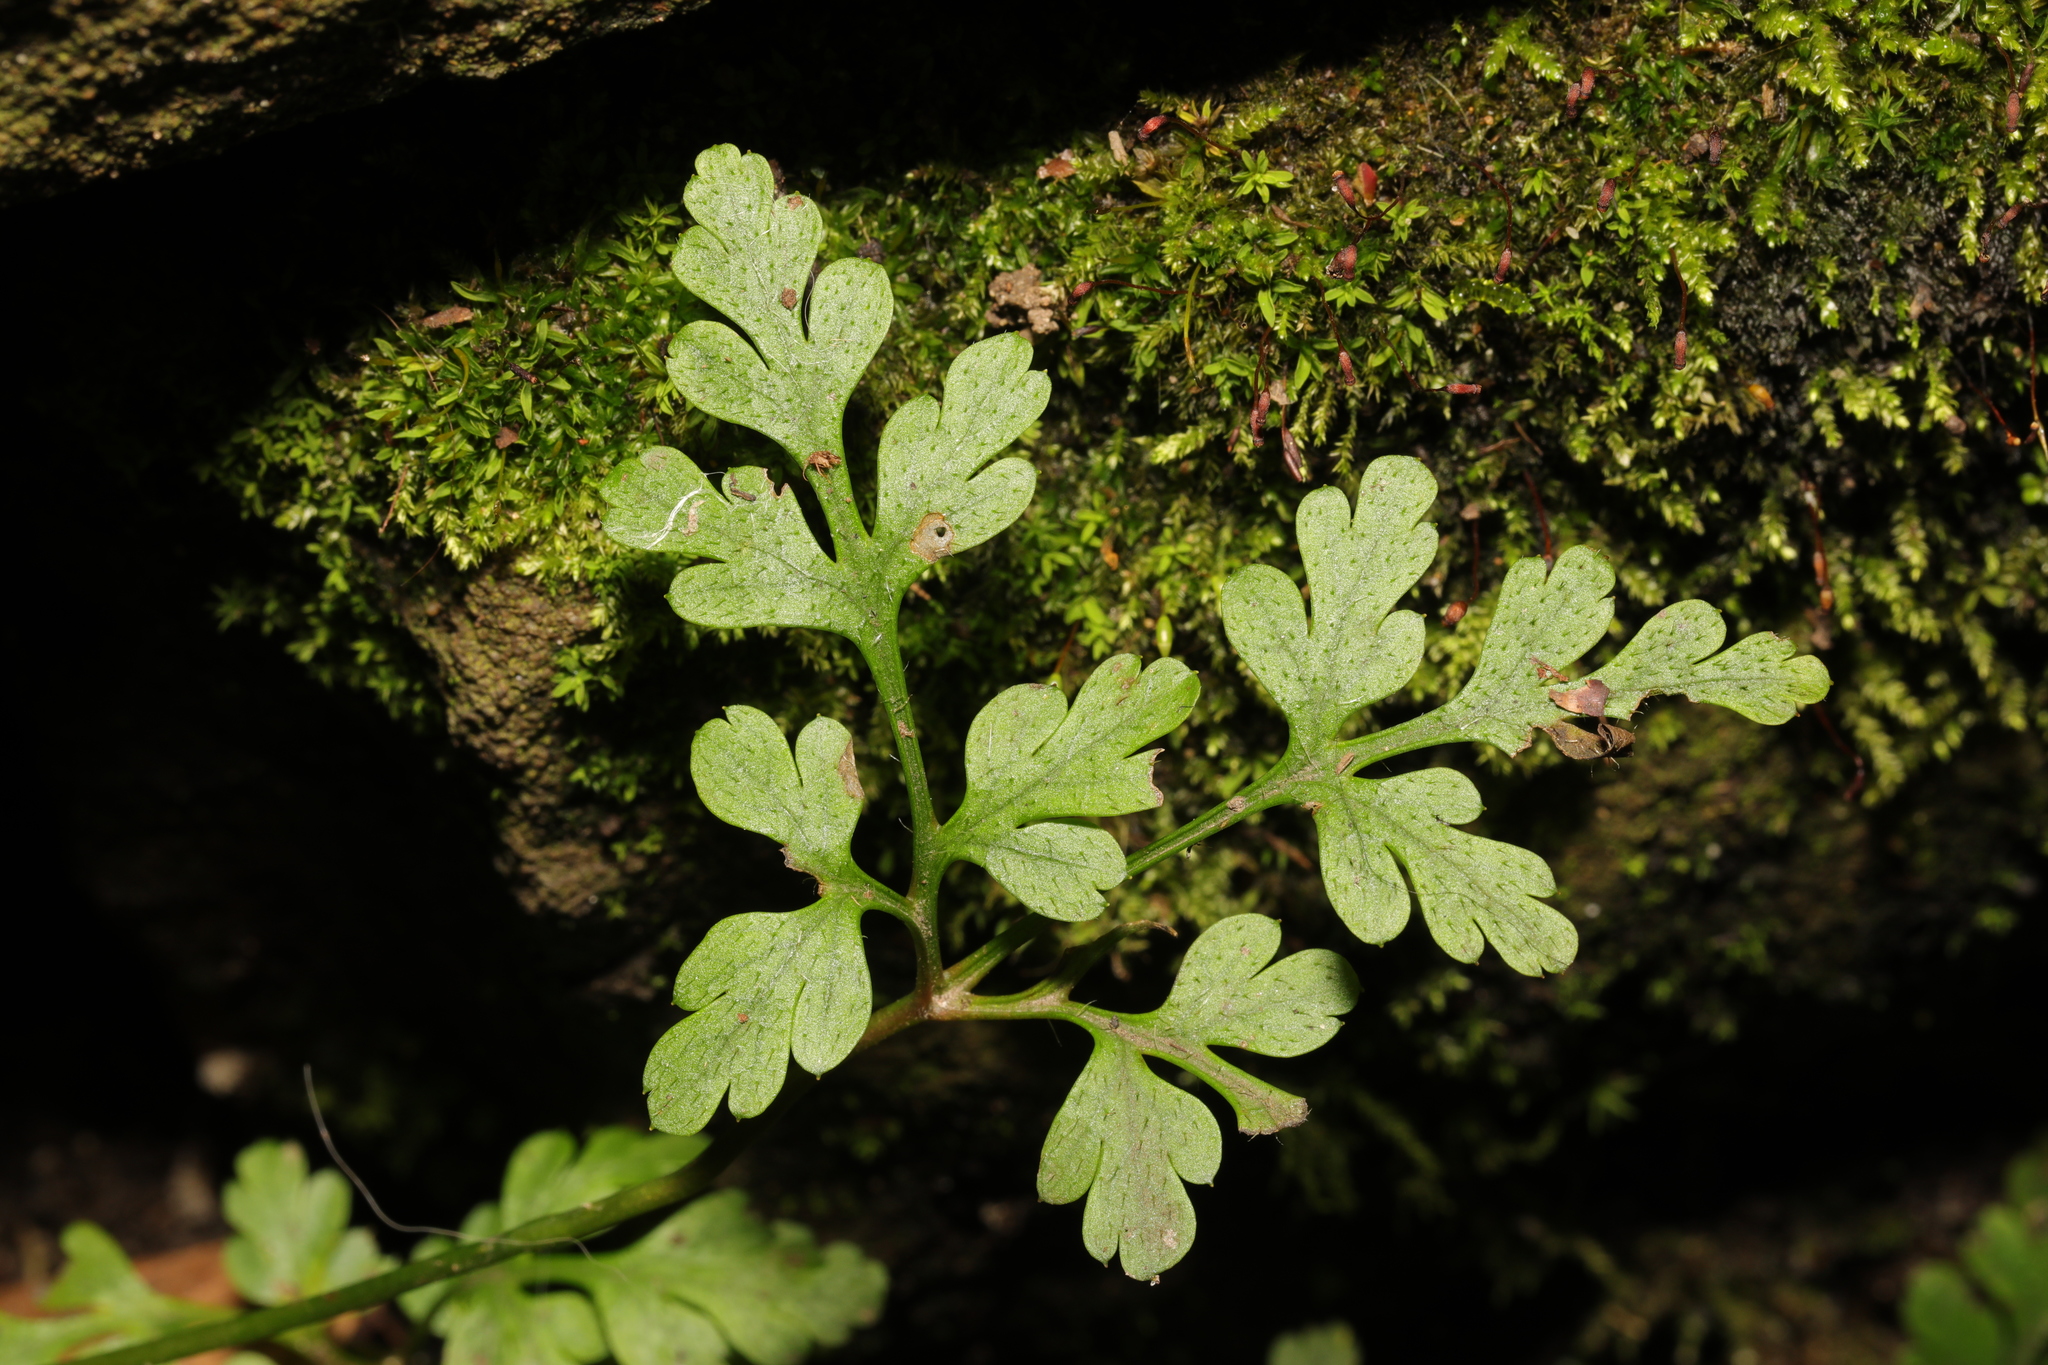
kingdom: Plantae
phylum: Tracheophyta
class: Magnoliopsida
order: Geraniales
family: Geraniaceae
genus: Geranium
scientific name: Geranium robertianum
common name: Herb-robert
